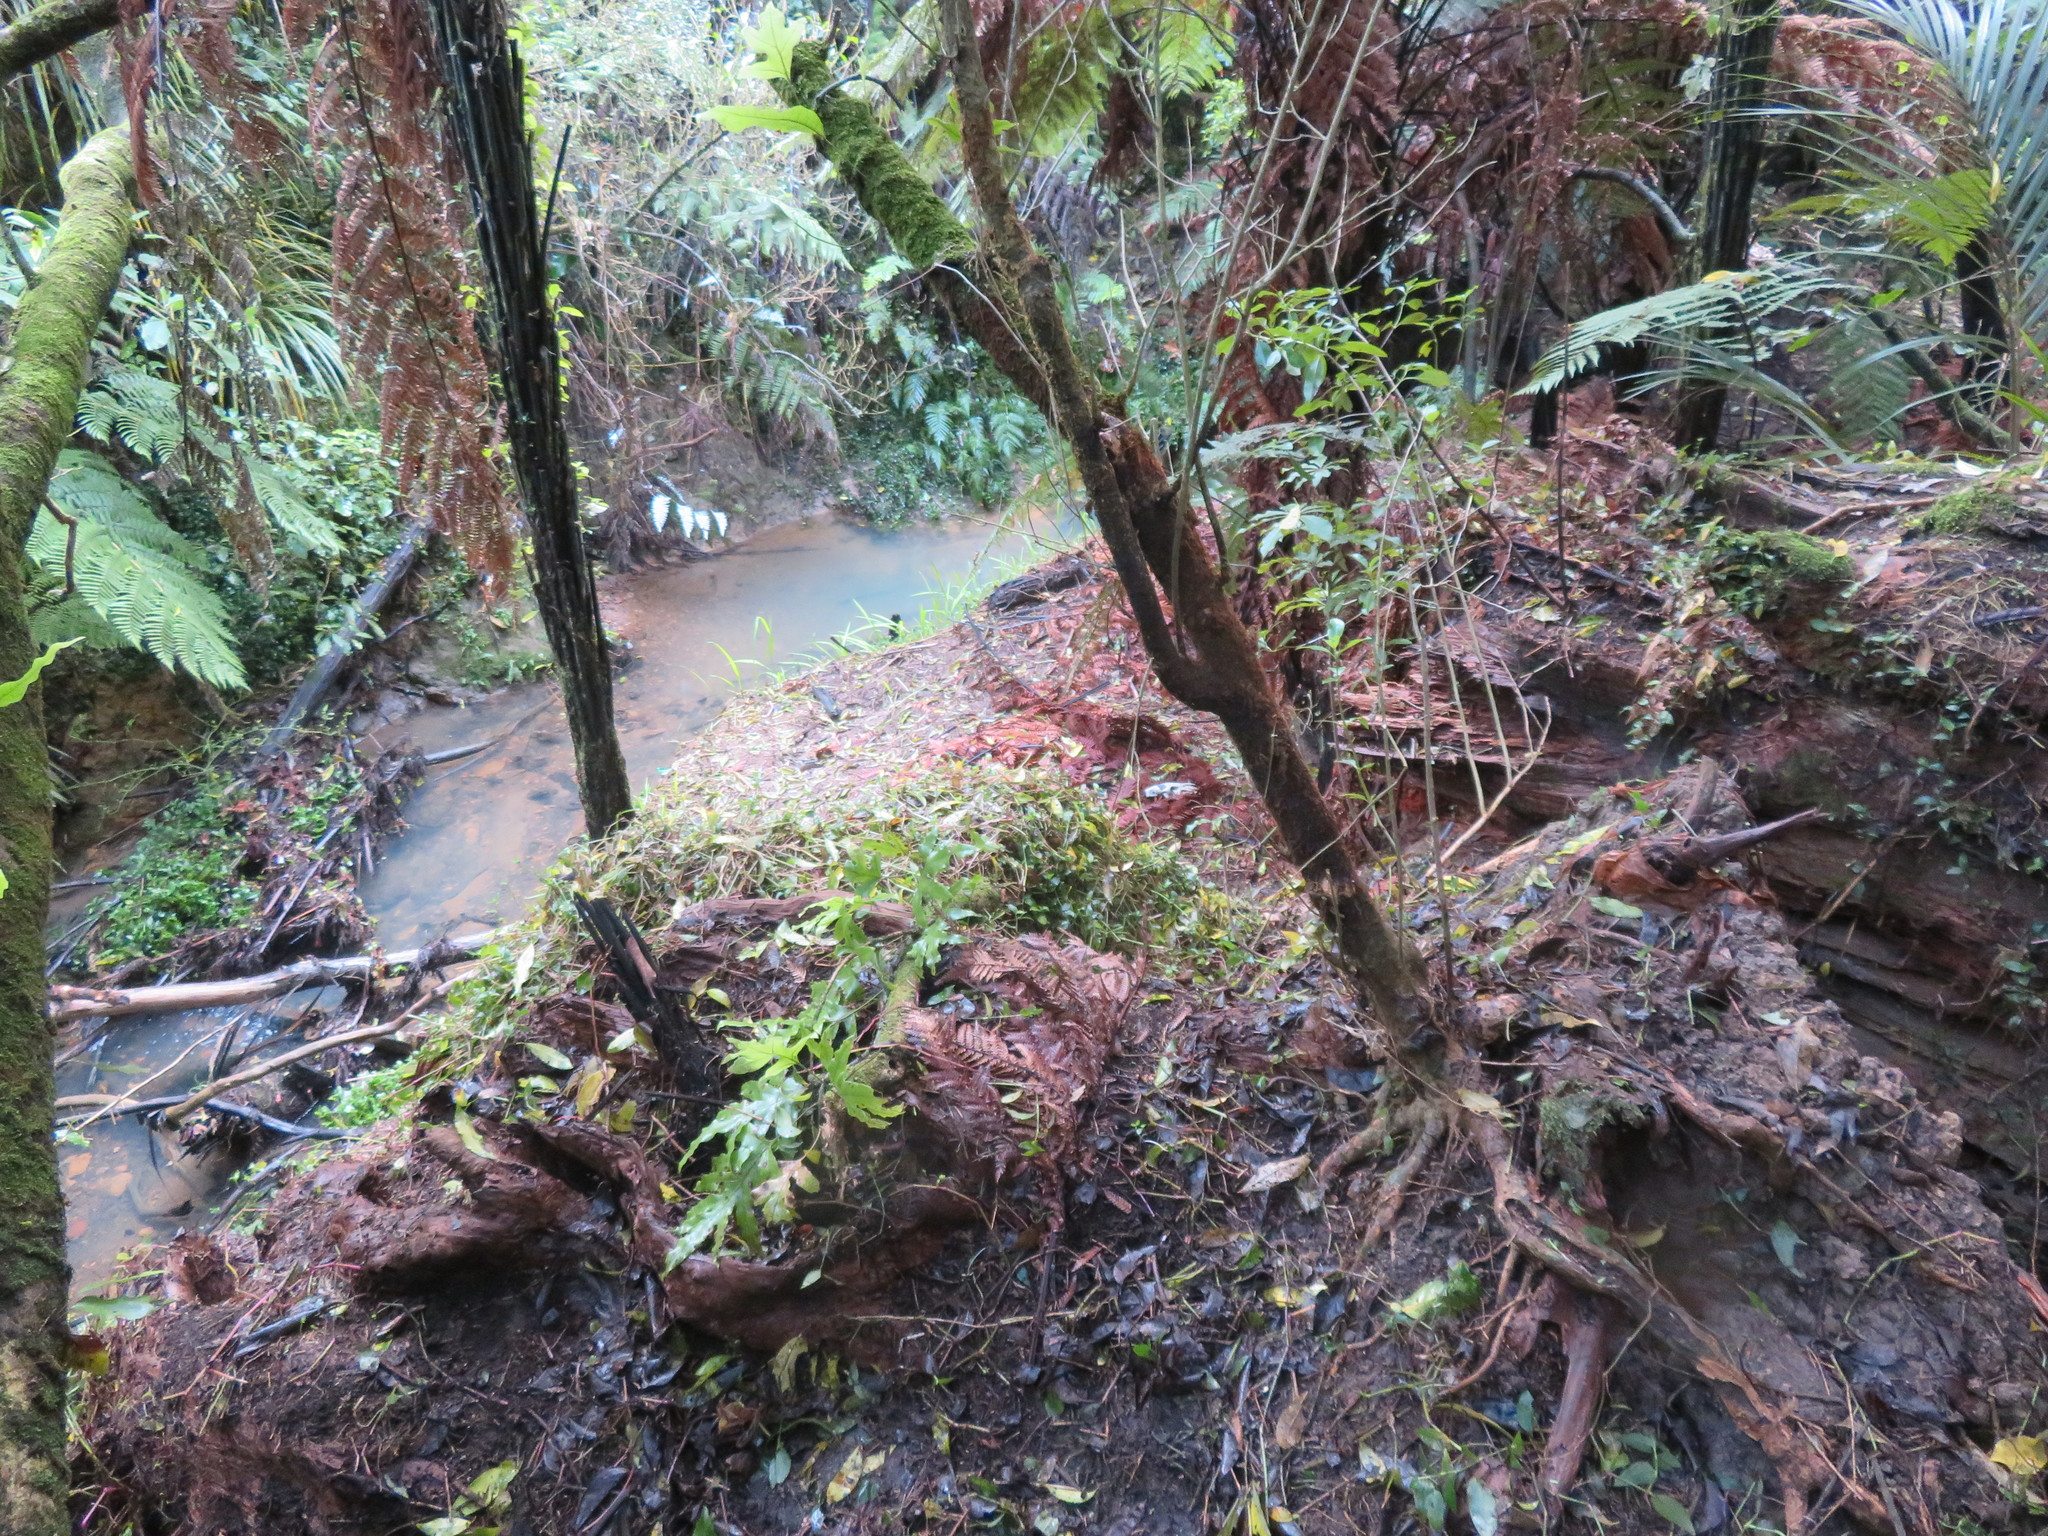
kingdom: Plantae
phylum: Tracheophyta
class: Magnoliopsida
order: Malpighiales
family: Violaceae
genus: Melicytus
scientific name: Melicytus ramiflorus
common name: Mahoe
